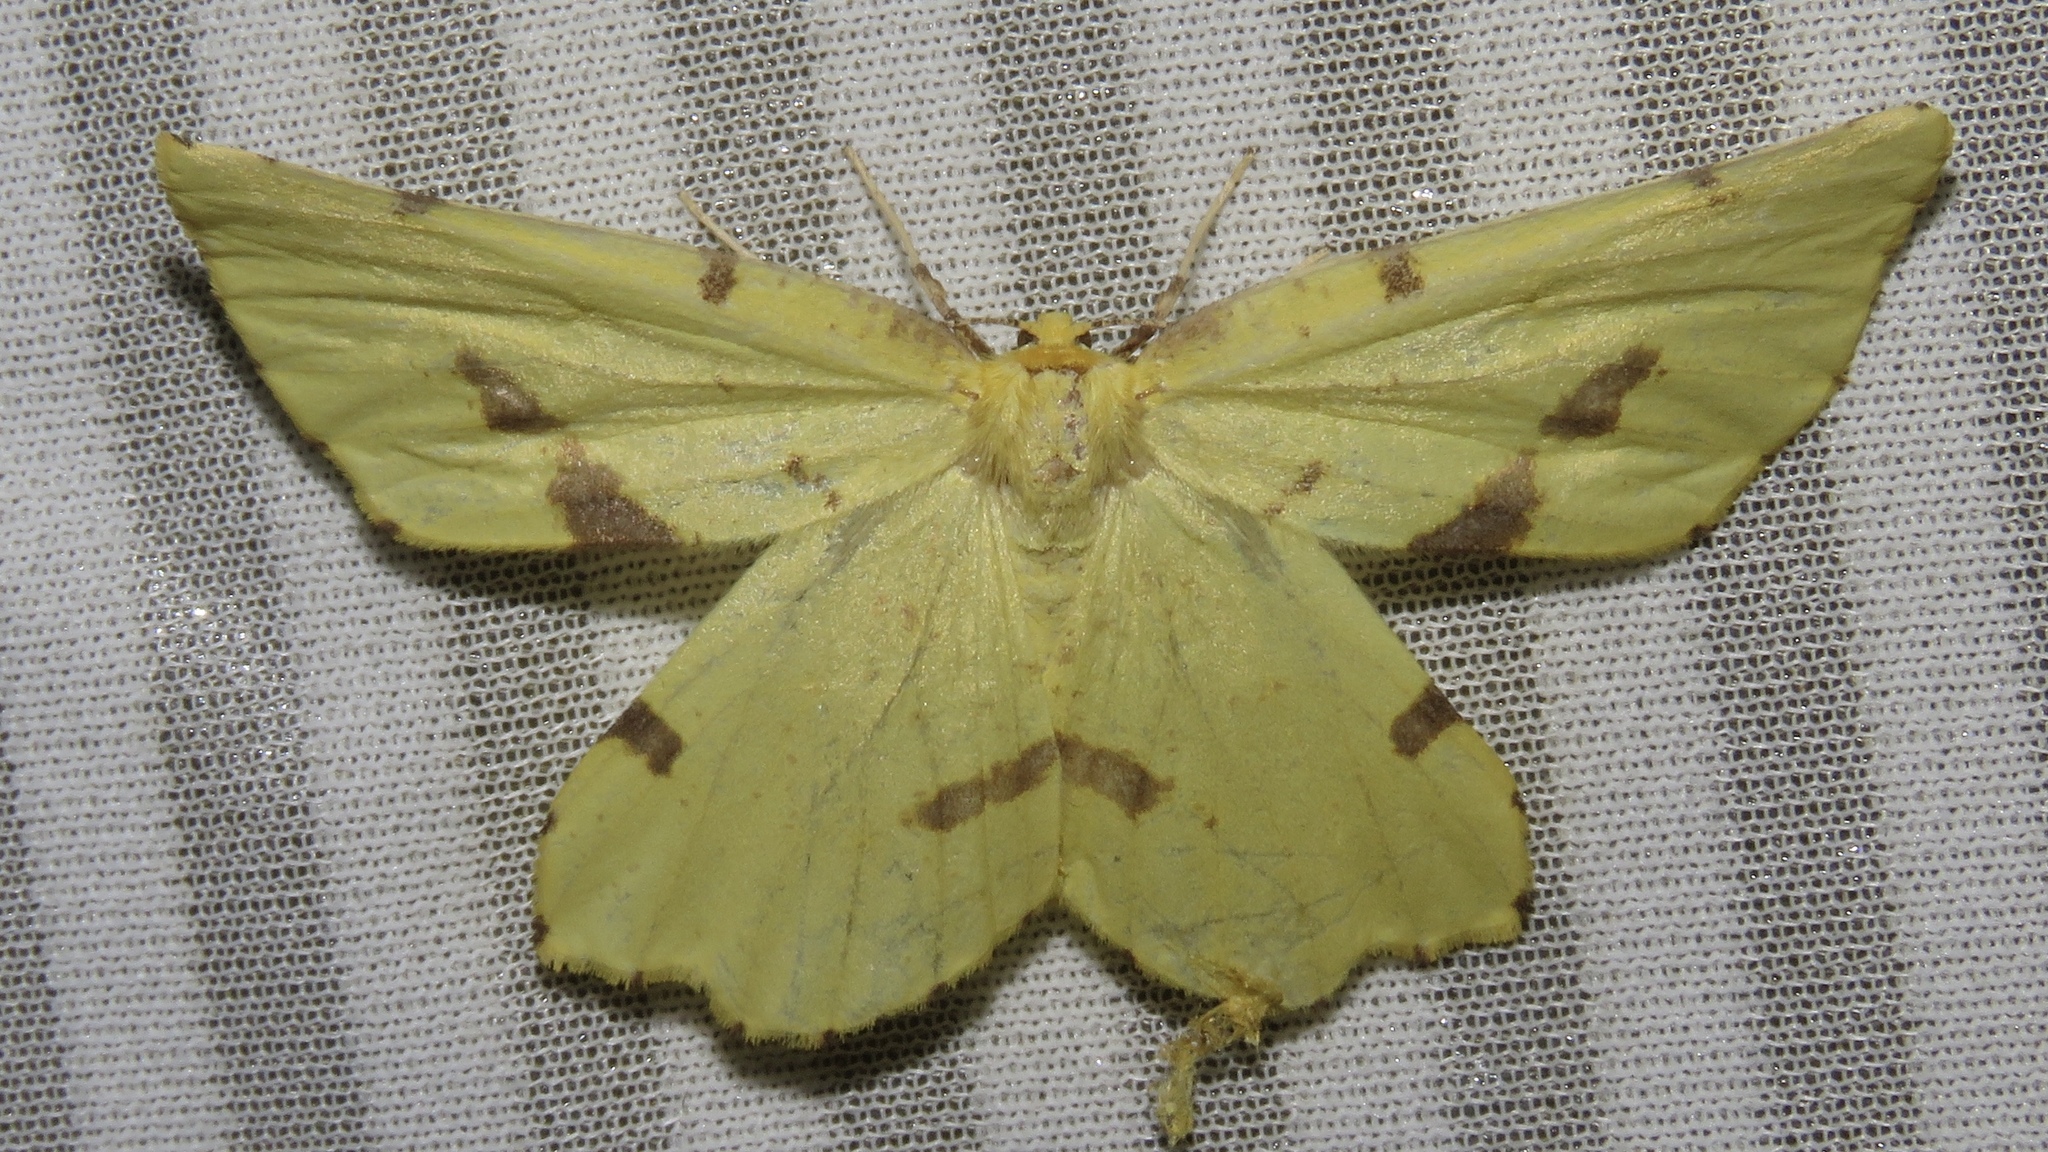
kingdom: Animalia
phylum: Arthropoda
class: Insecta
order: Lepidoptera
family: Geometridae
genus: Xanthotype
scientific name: Xanthotype
